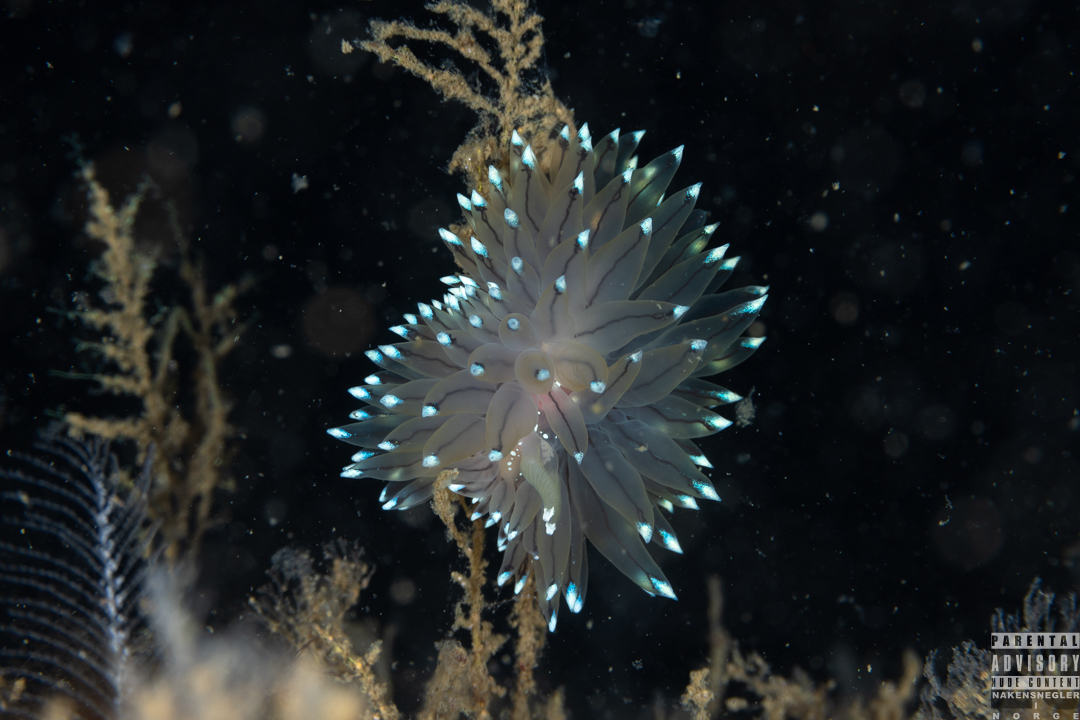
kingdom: Animalia
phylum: Mollusca
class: Gastropoda
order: Nudibranchia
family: Janolidae
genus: Antiopella
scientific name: Antiopella cristata
